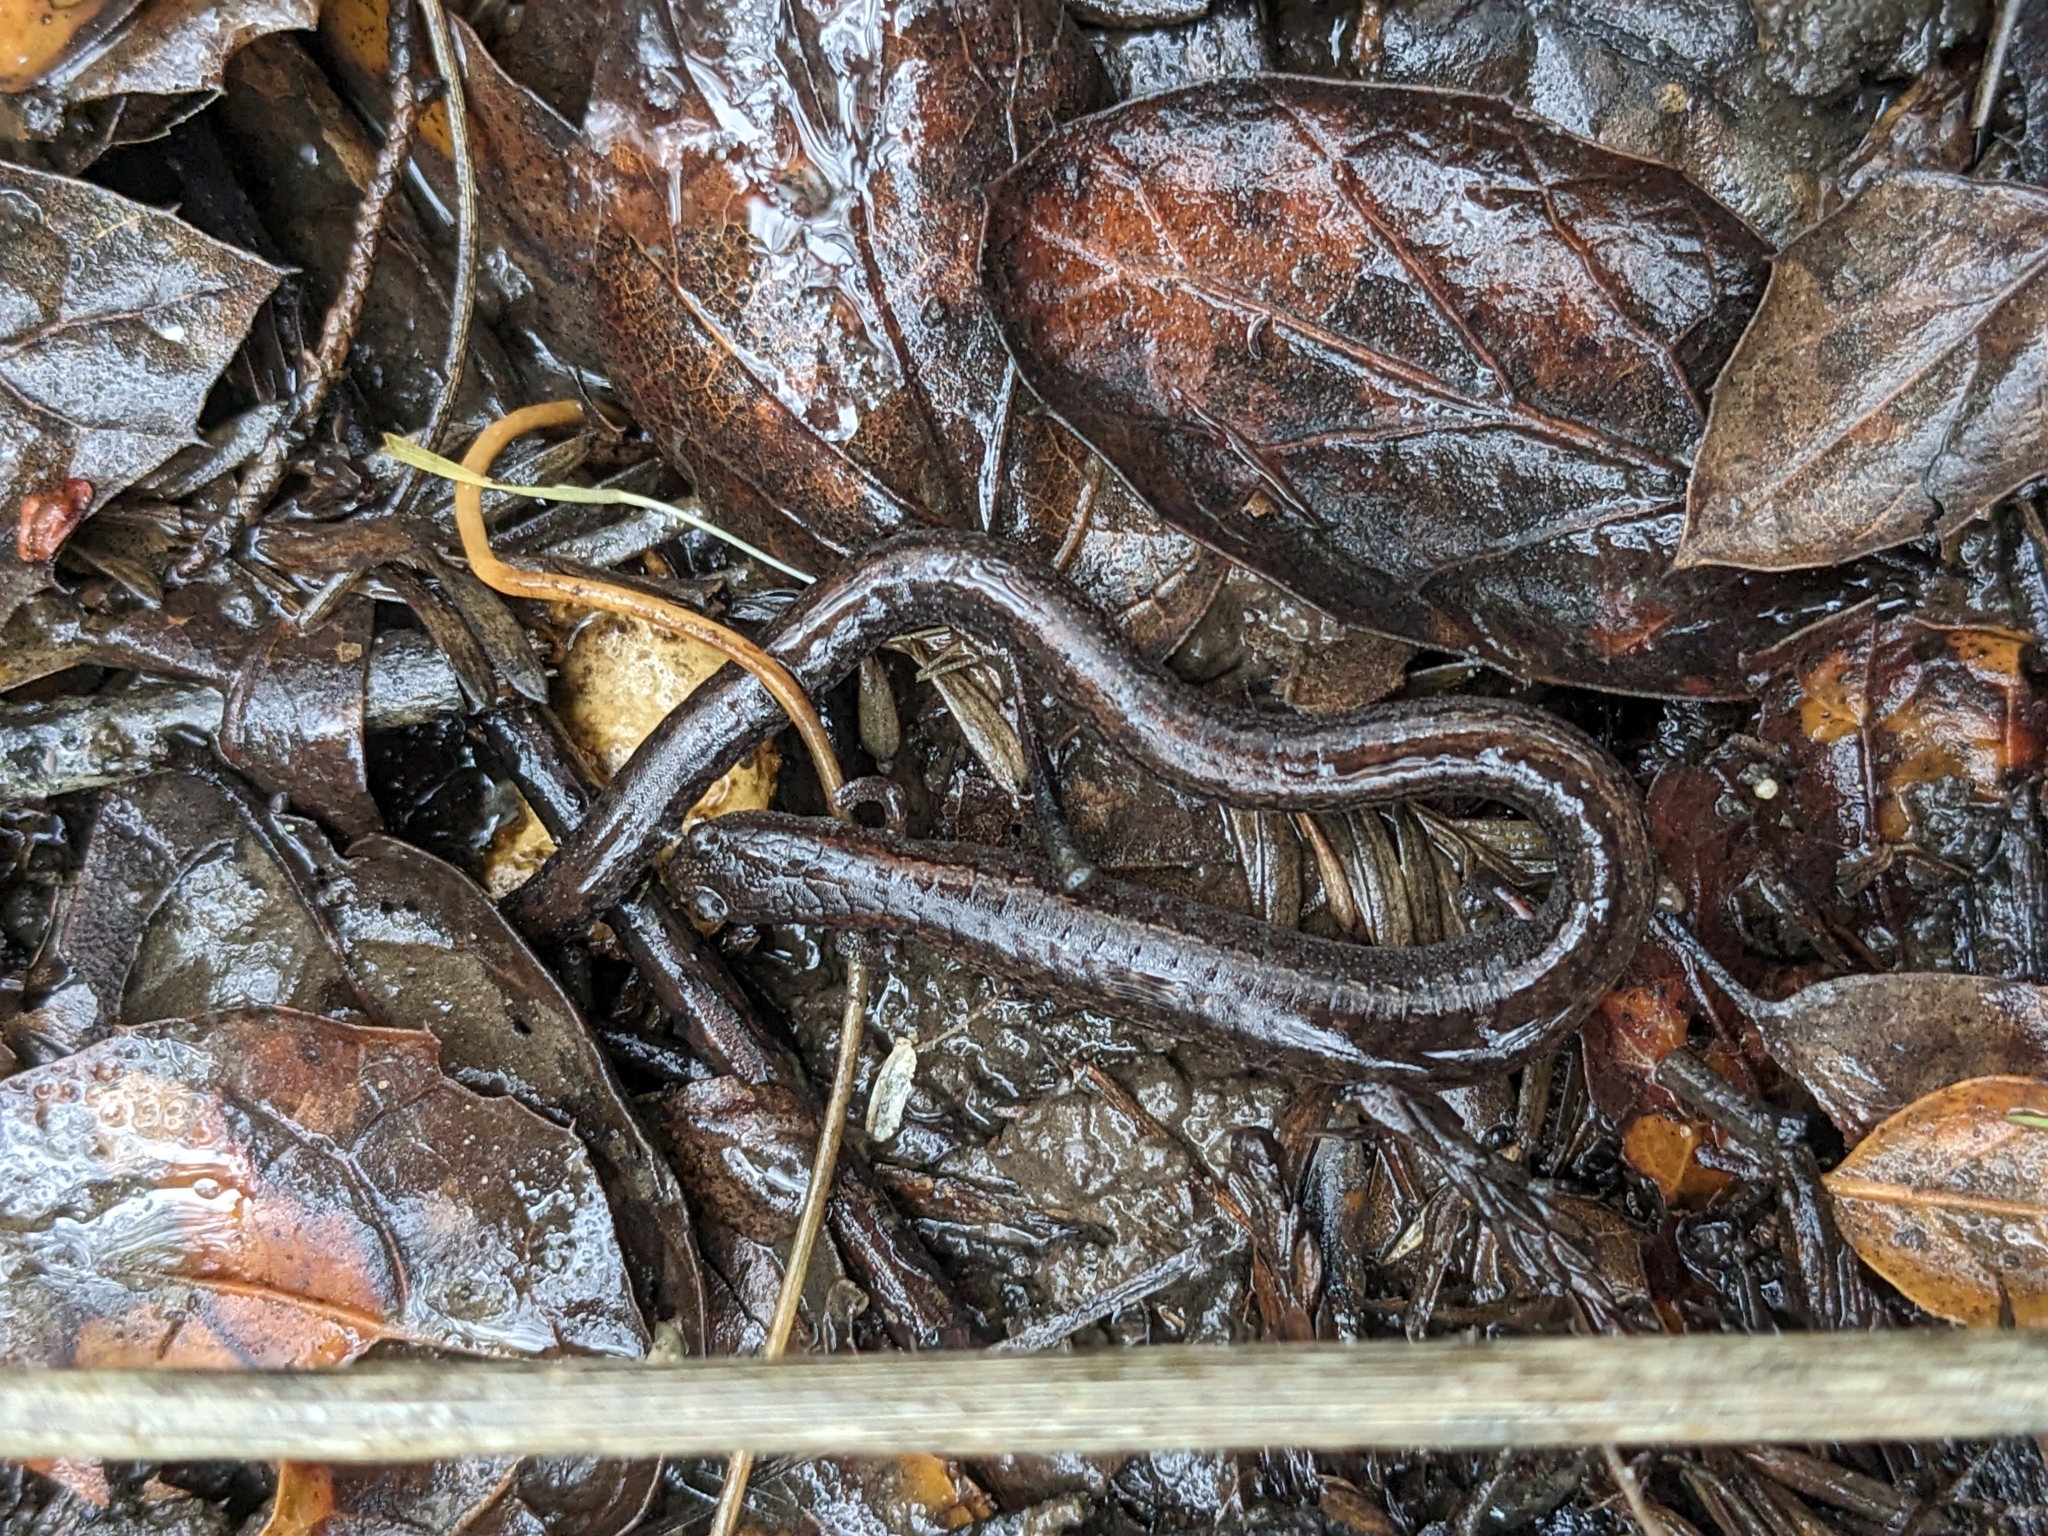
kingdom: Animalia
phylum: Chordata
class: Amphibia
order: Caudata
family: Plethodontidae
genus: Batrachoseps
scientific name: Batrachoseps attenuatus
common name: California slender salamander
